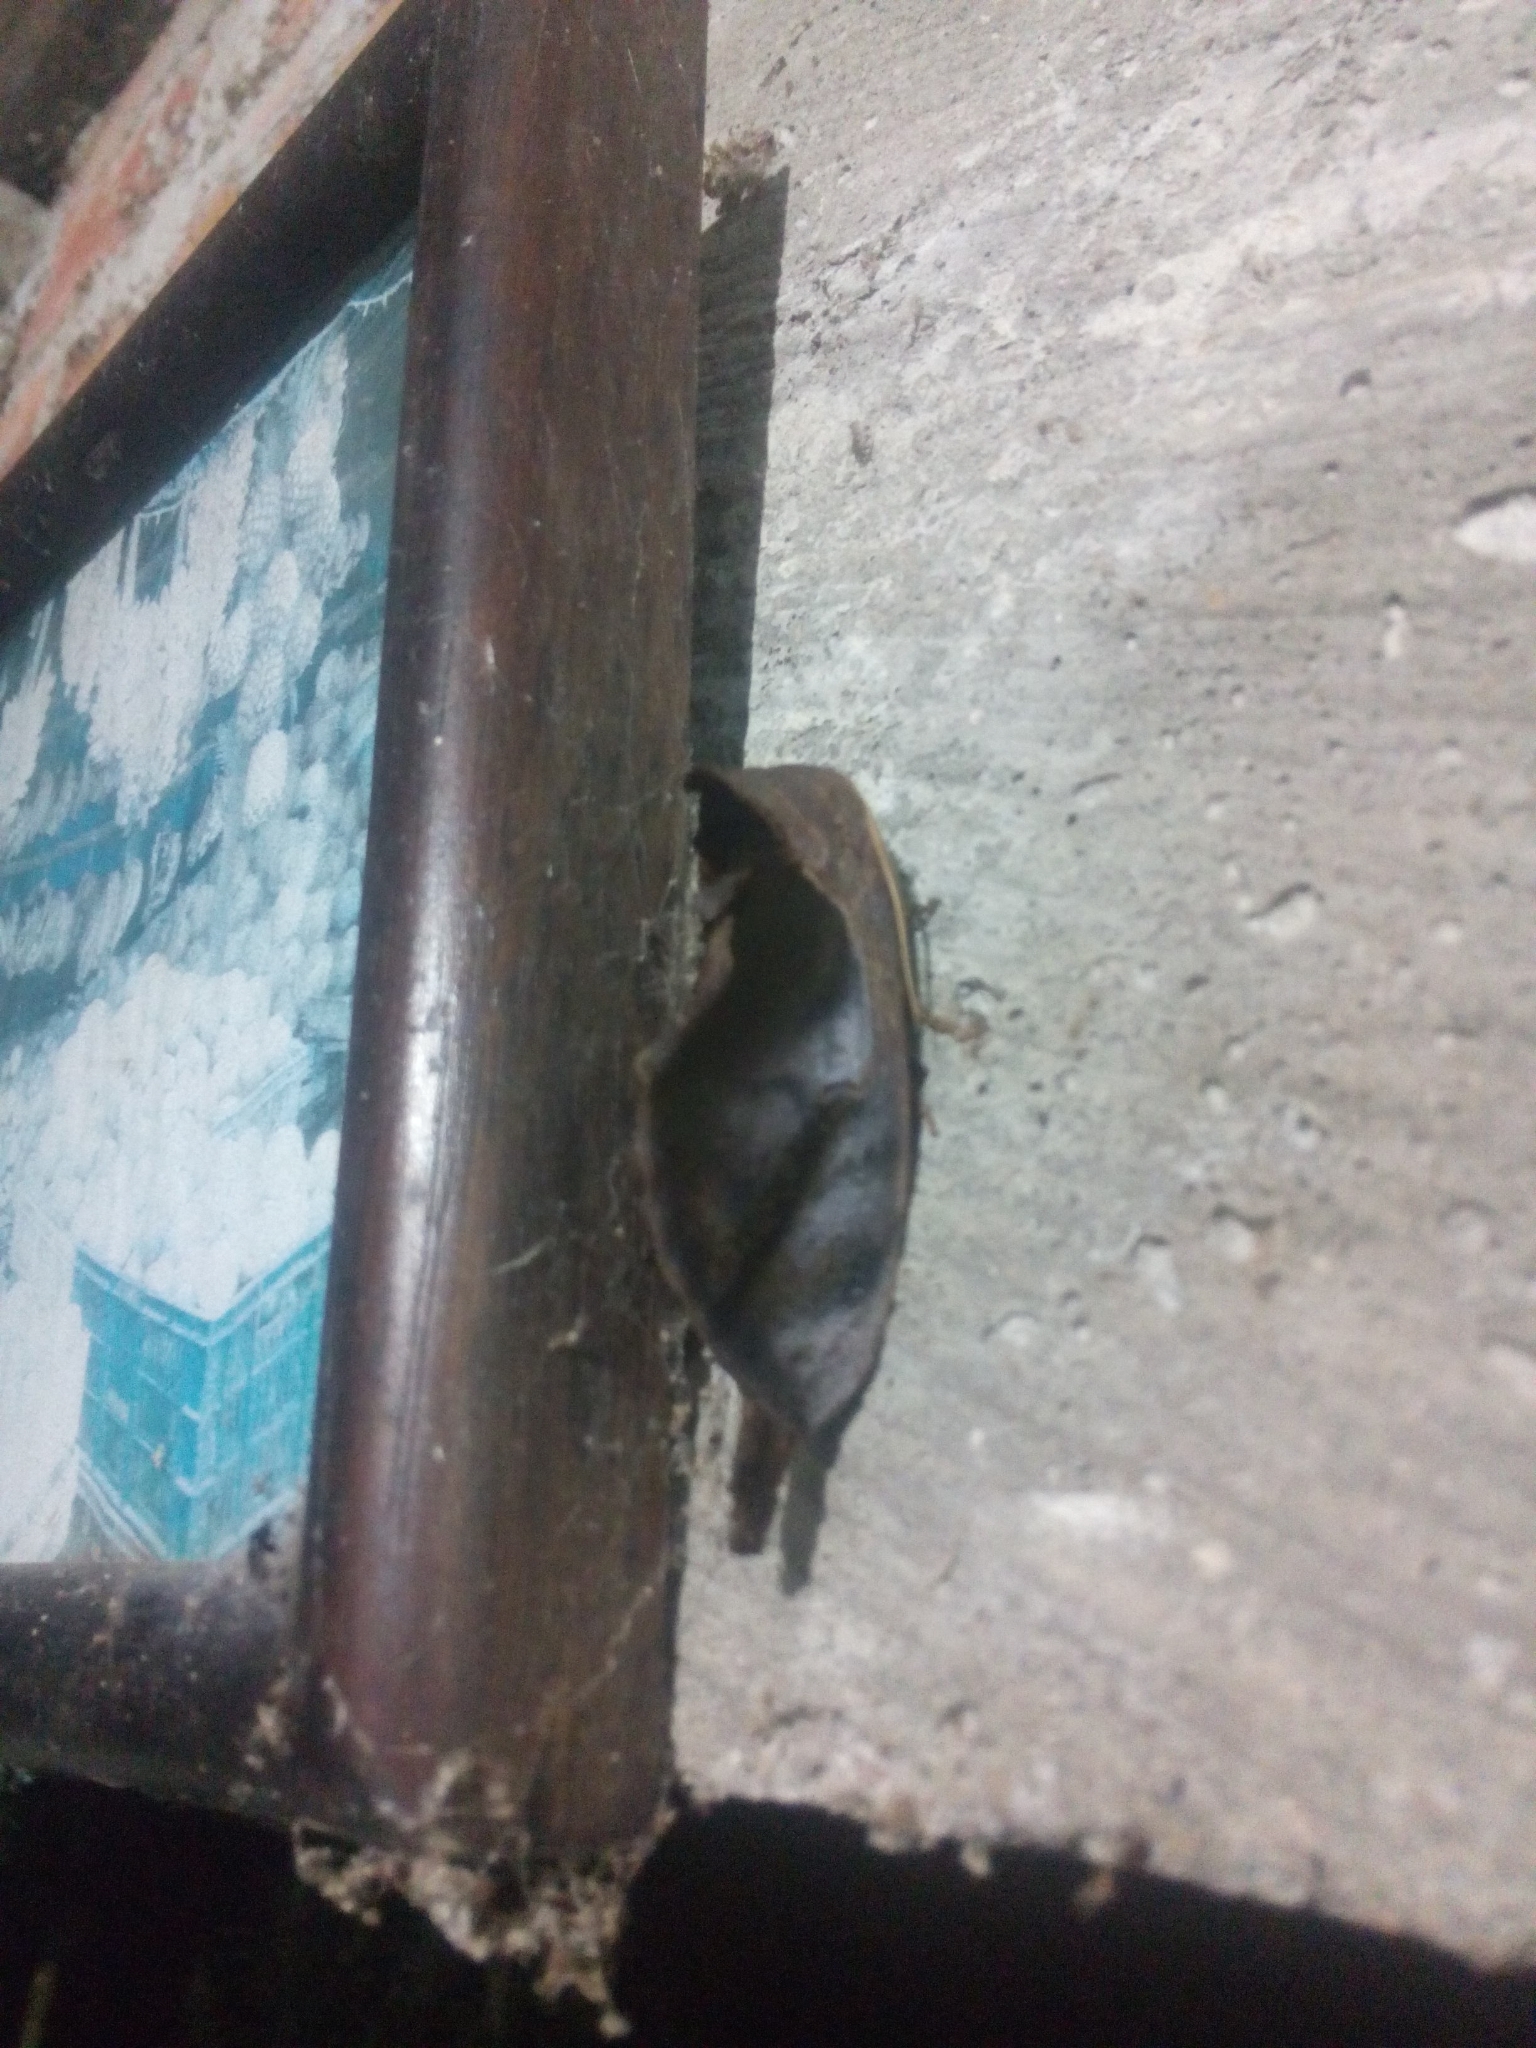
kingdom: Animalia
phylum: Arthropoda
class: Insecta
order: Lepidoptera
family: Notodontidae
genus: Crinodes
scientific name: Crinodes
